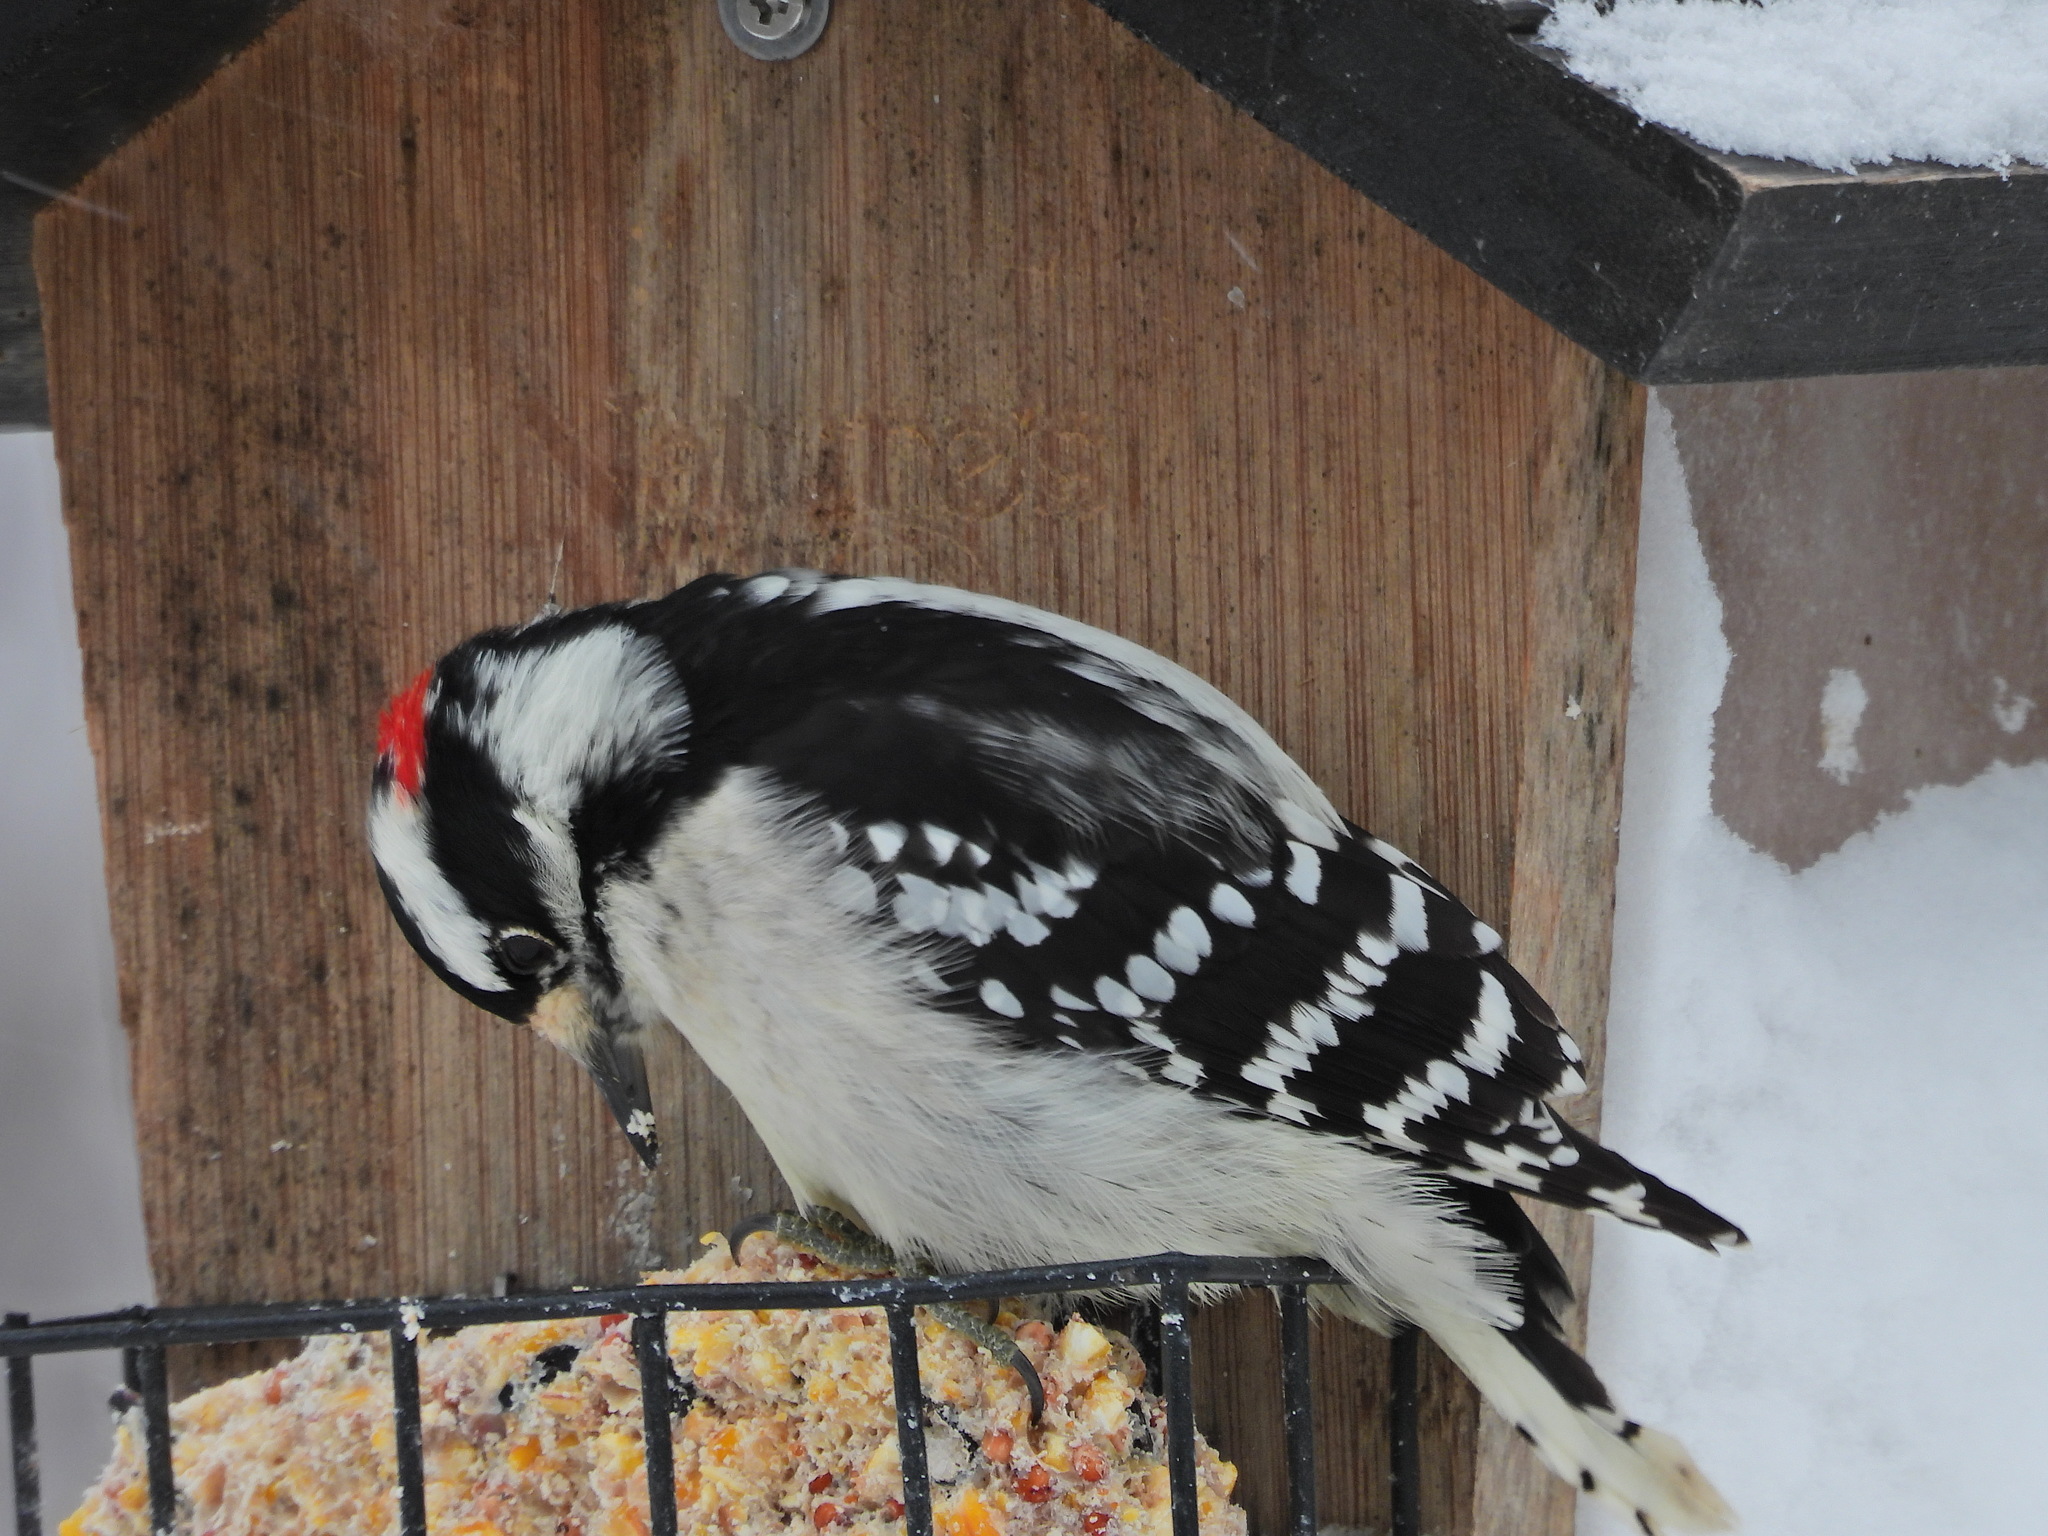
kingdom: Animalia
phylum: Chordata
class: Aves
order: Piciformes
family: Picidae
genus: Dryobates
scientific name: Dryobates pubescens
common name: Downy woodpecker
